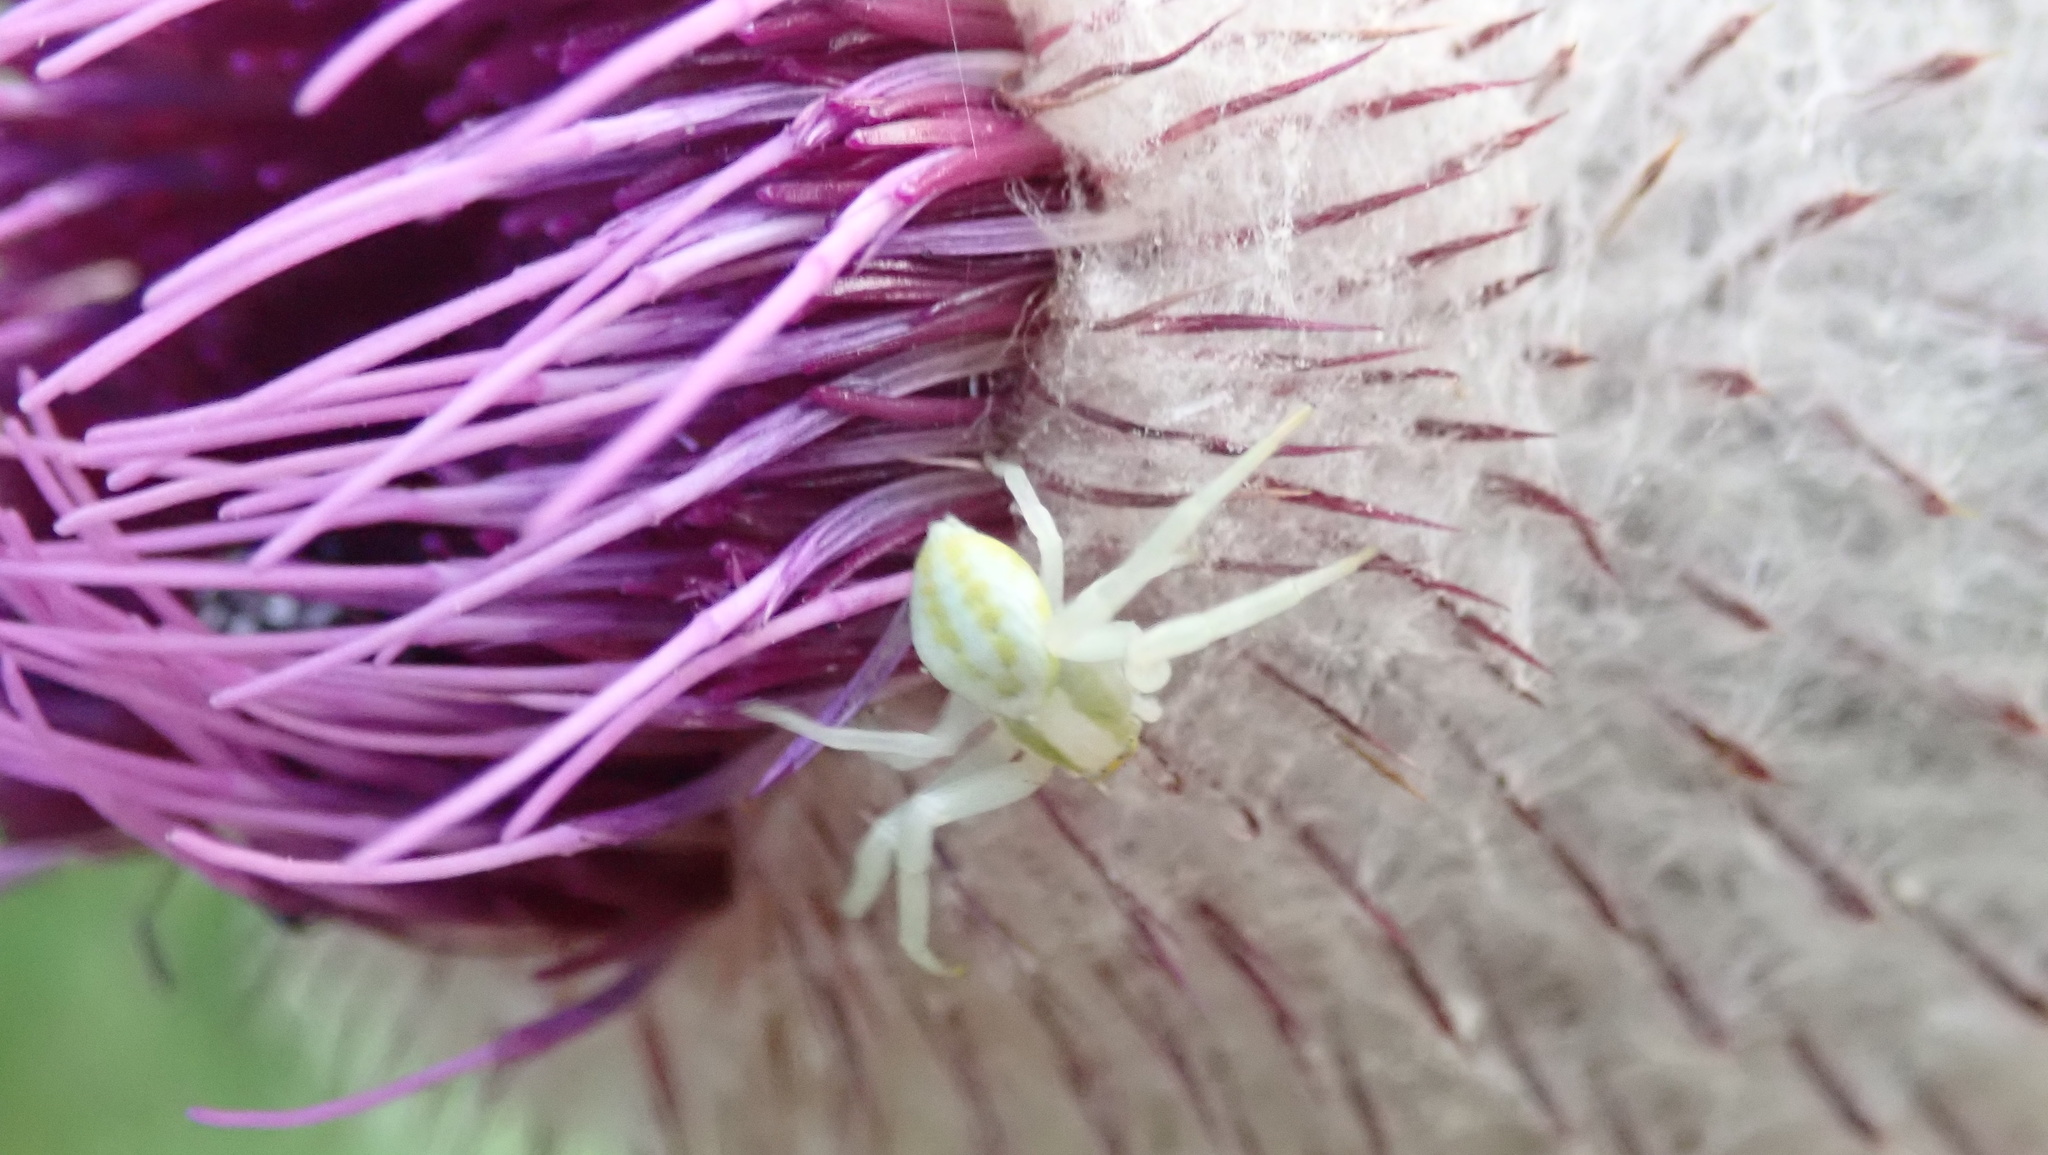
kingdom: Animalia
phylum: Arthropoda
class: Arachnida
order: Araneae
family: Thomisidae
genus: Misumena
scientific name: Misumena vatia
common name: Goldenrod crab spider
